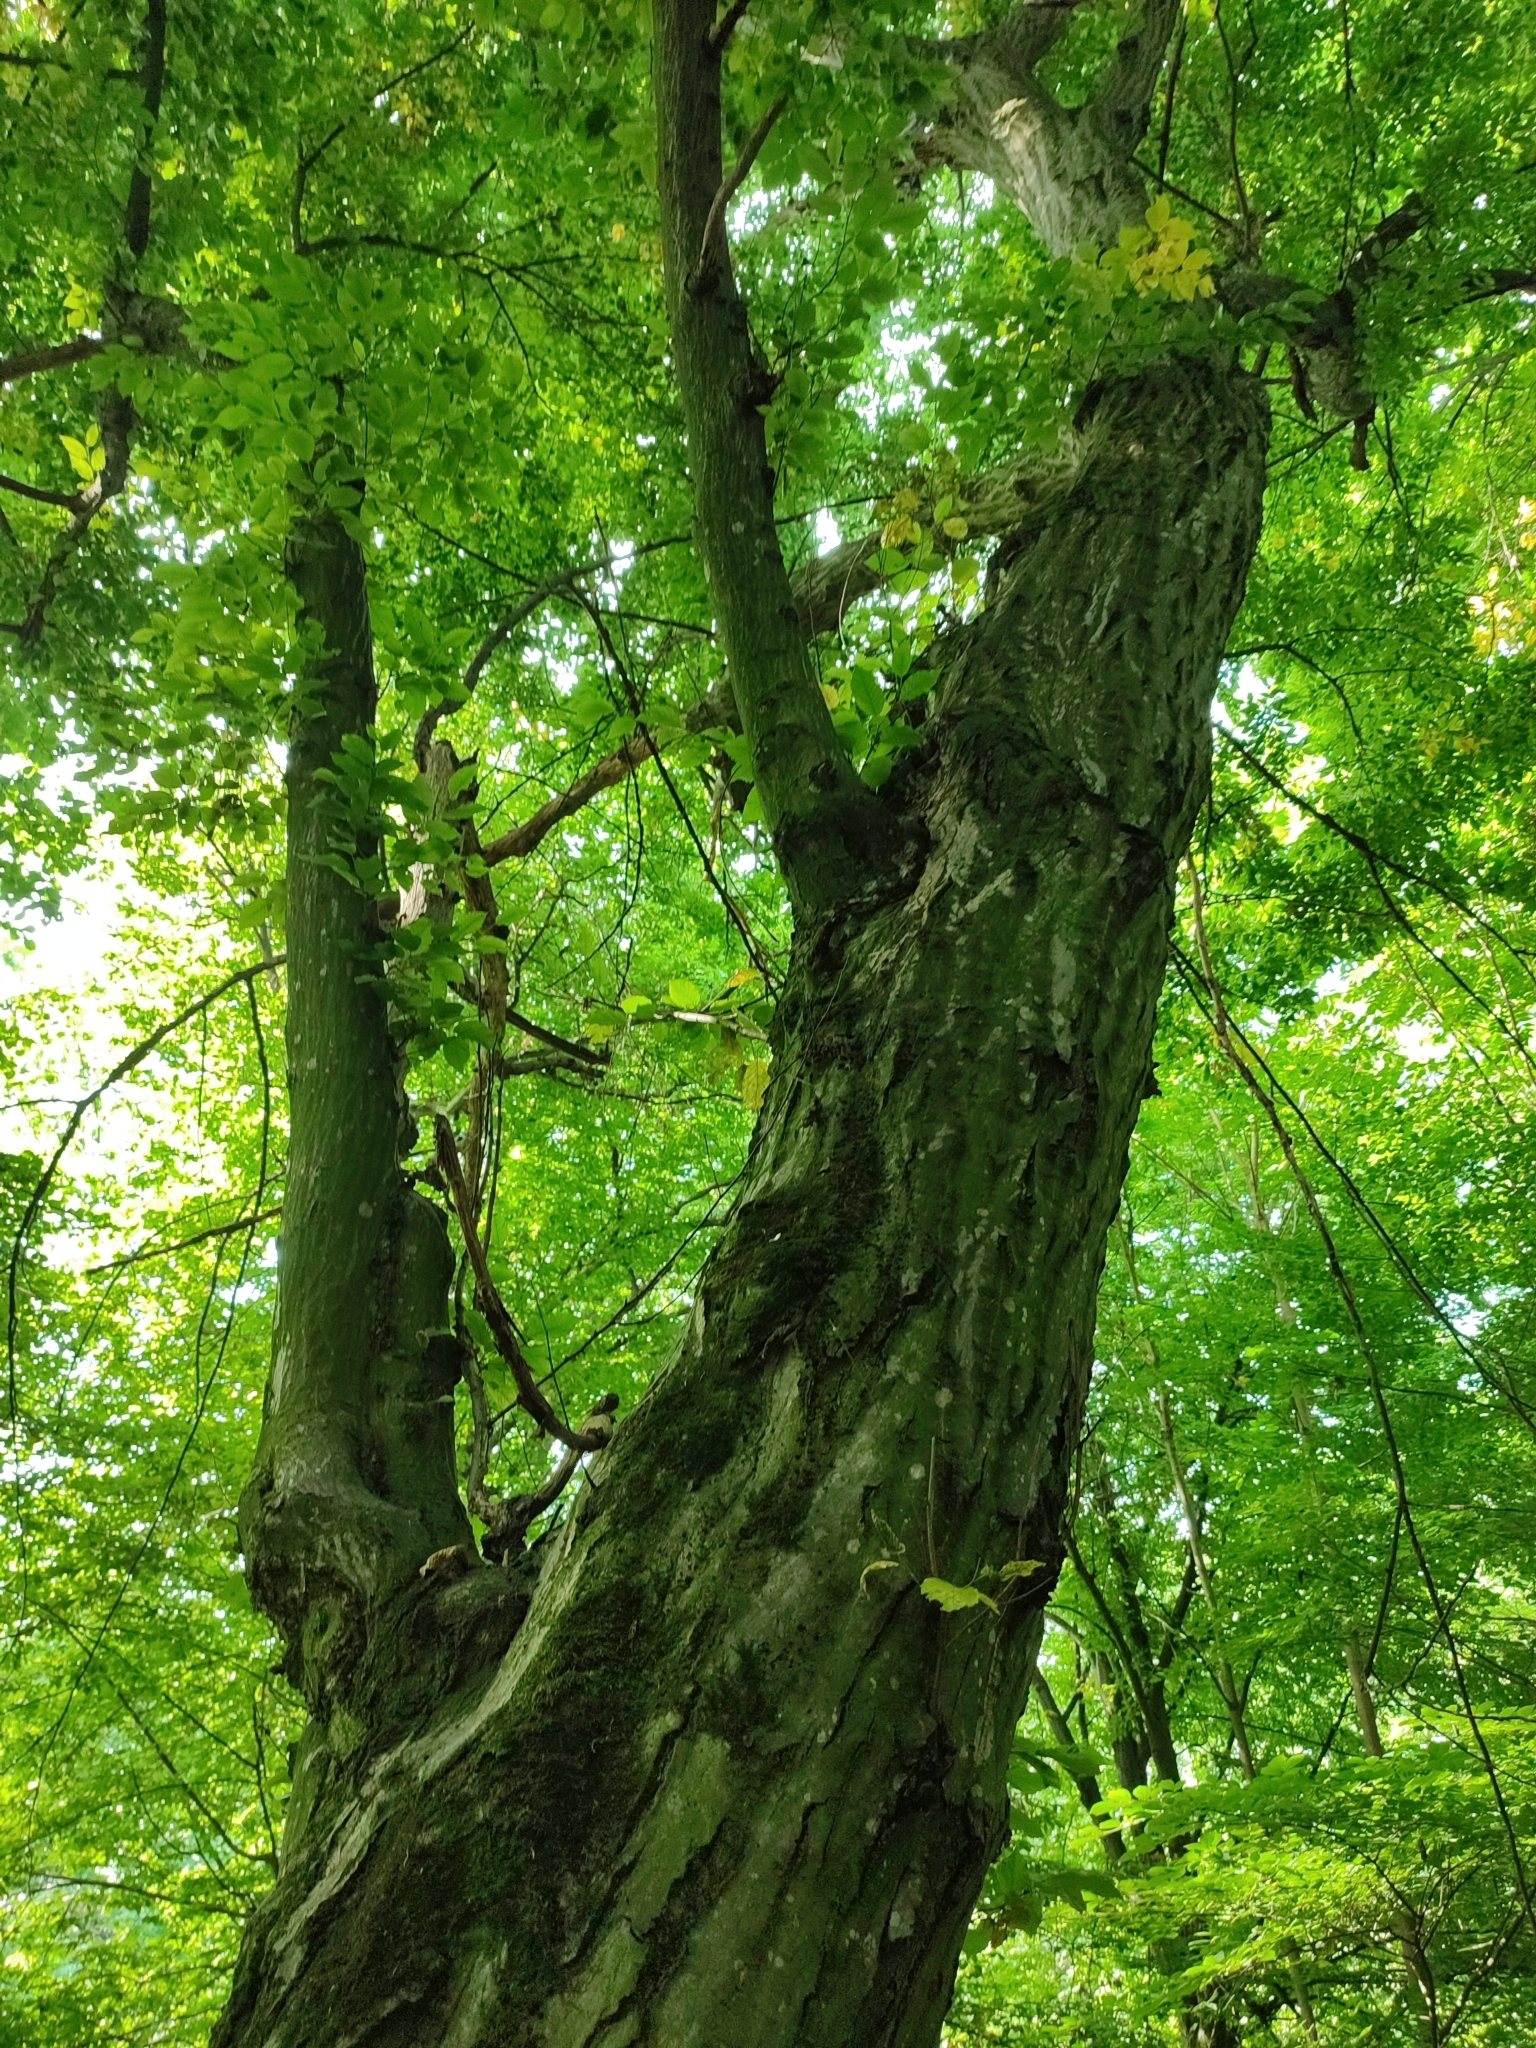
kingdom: Plantae
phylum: Tracheophyta
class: Magnoliopsida
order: Fagales
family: Betulaceae
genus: Carpinus
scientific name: Carpinus betulus
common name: Hornbeam
